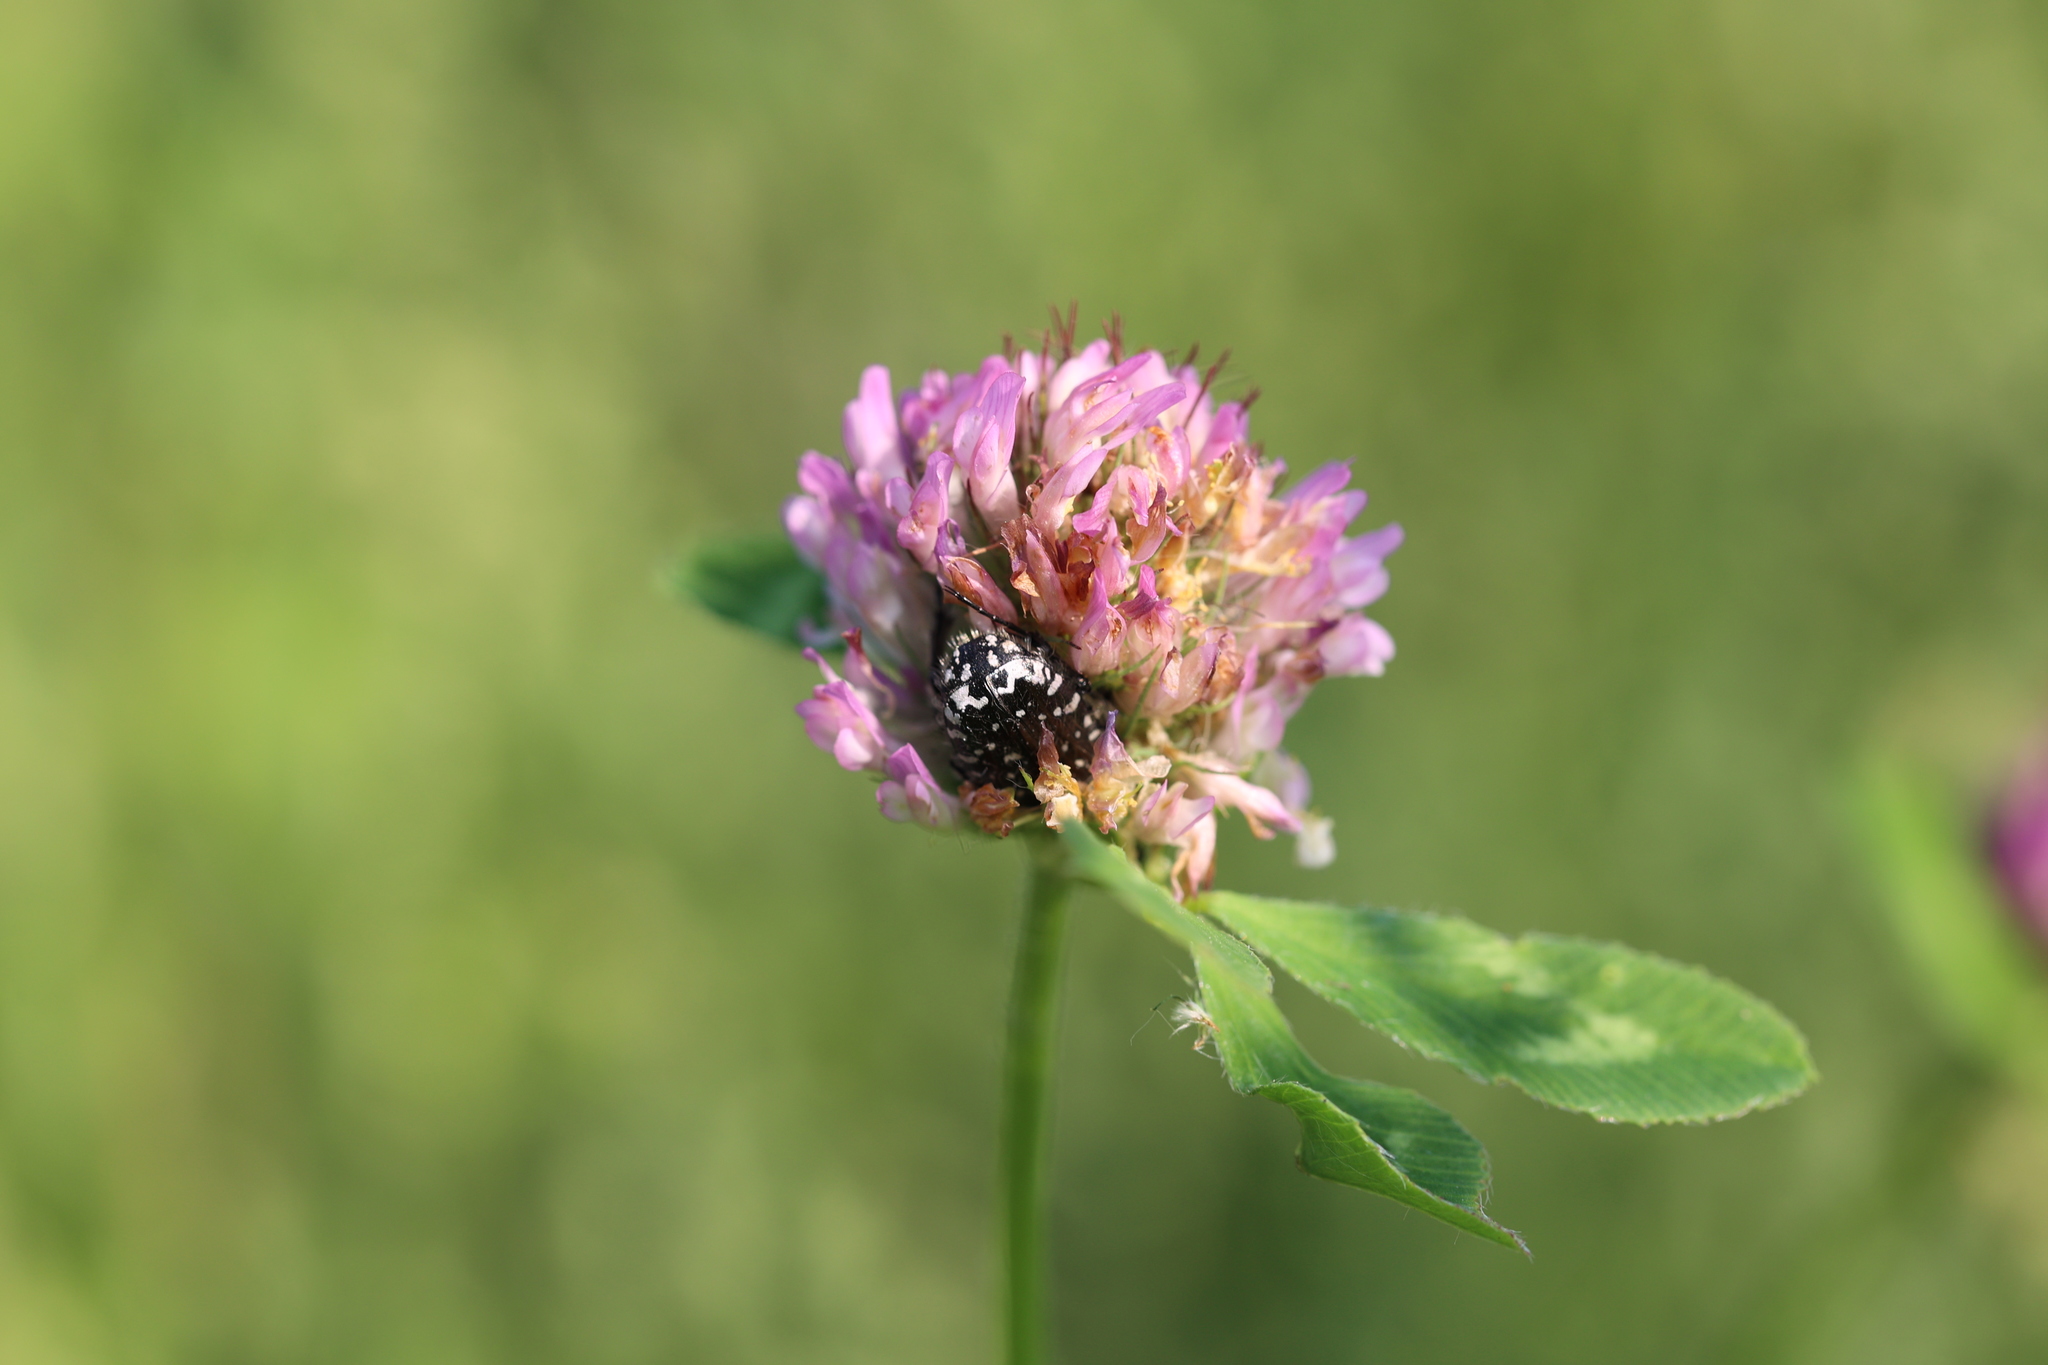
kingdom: Animalia
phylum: Arthropoda
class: Insecta
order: Coleoptera
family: Scarabaeidae
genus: Oxythyrea
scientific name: Oxythyrea funesta
